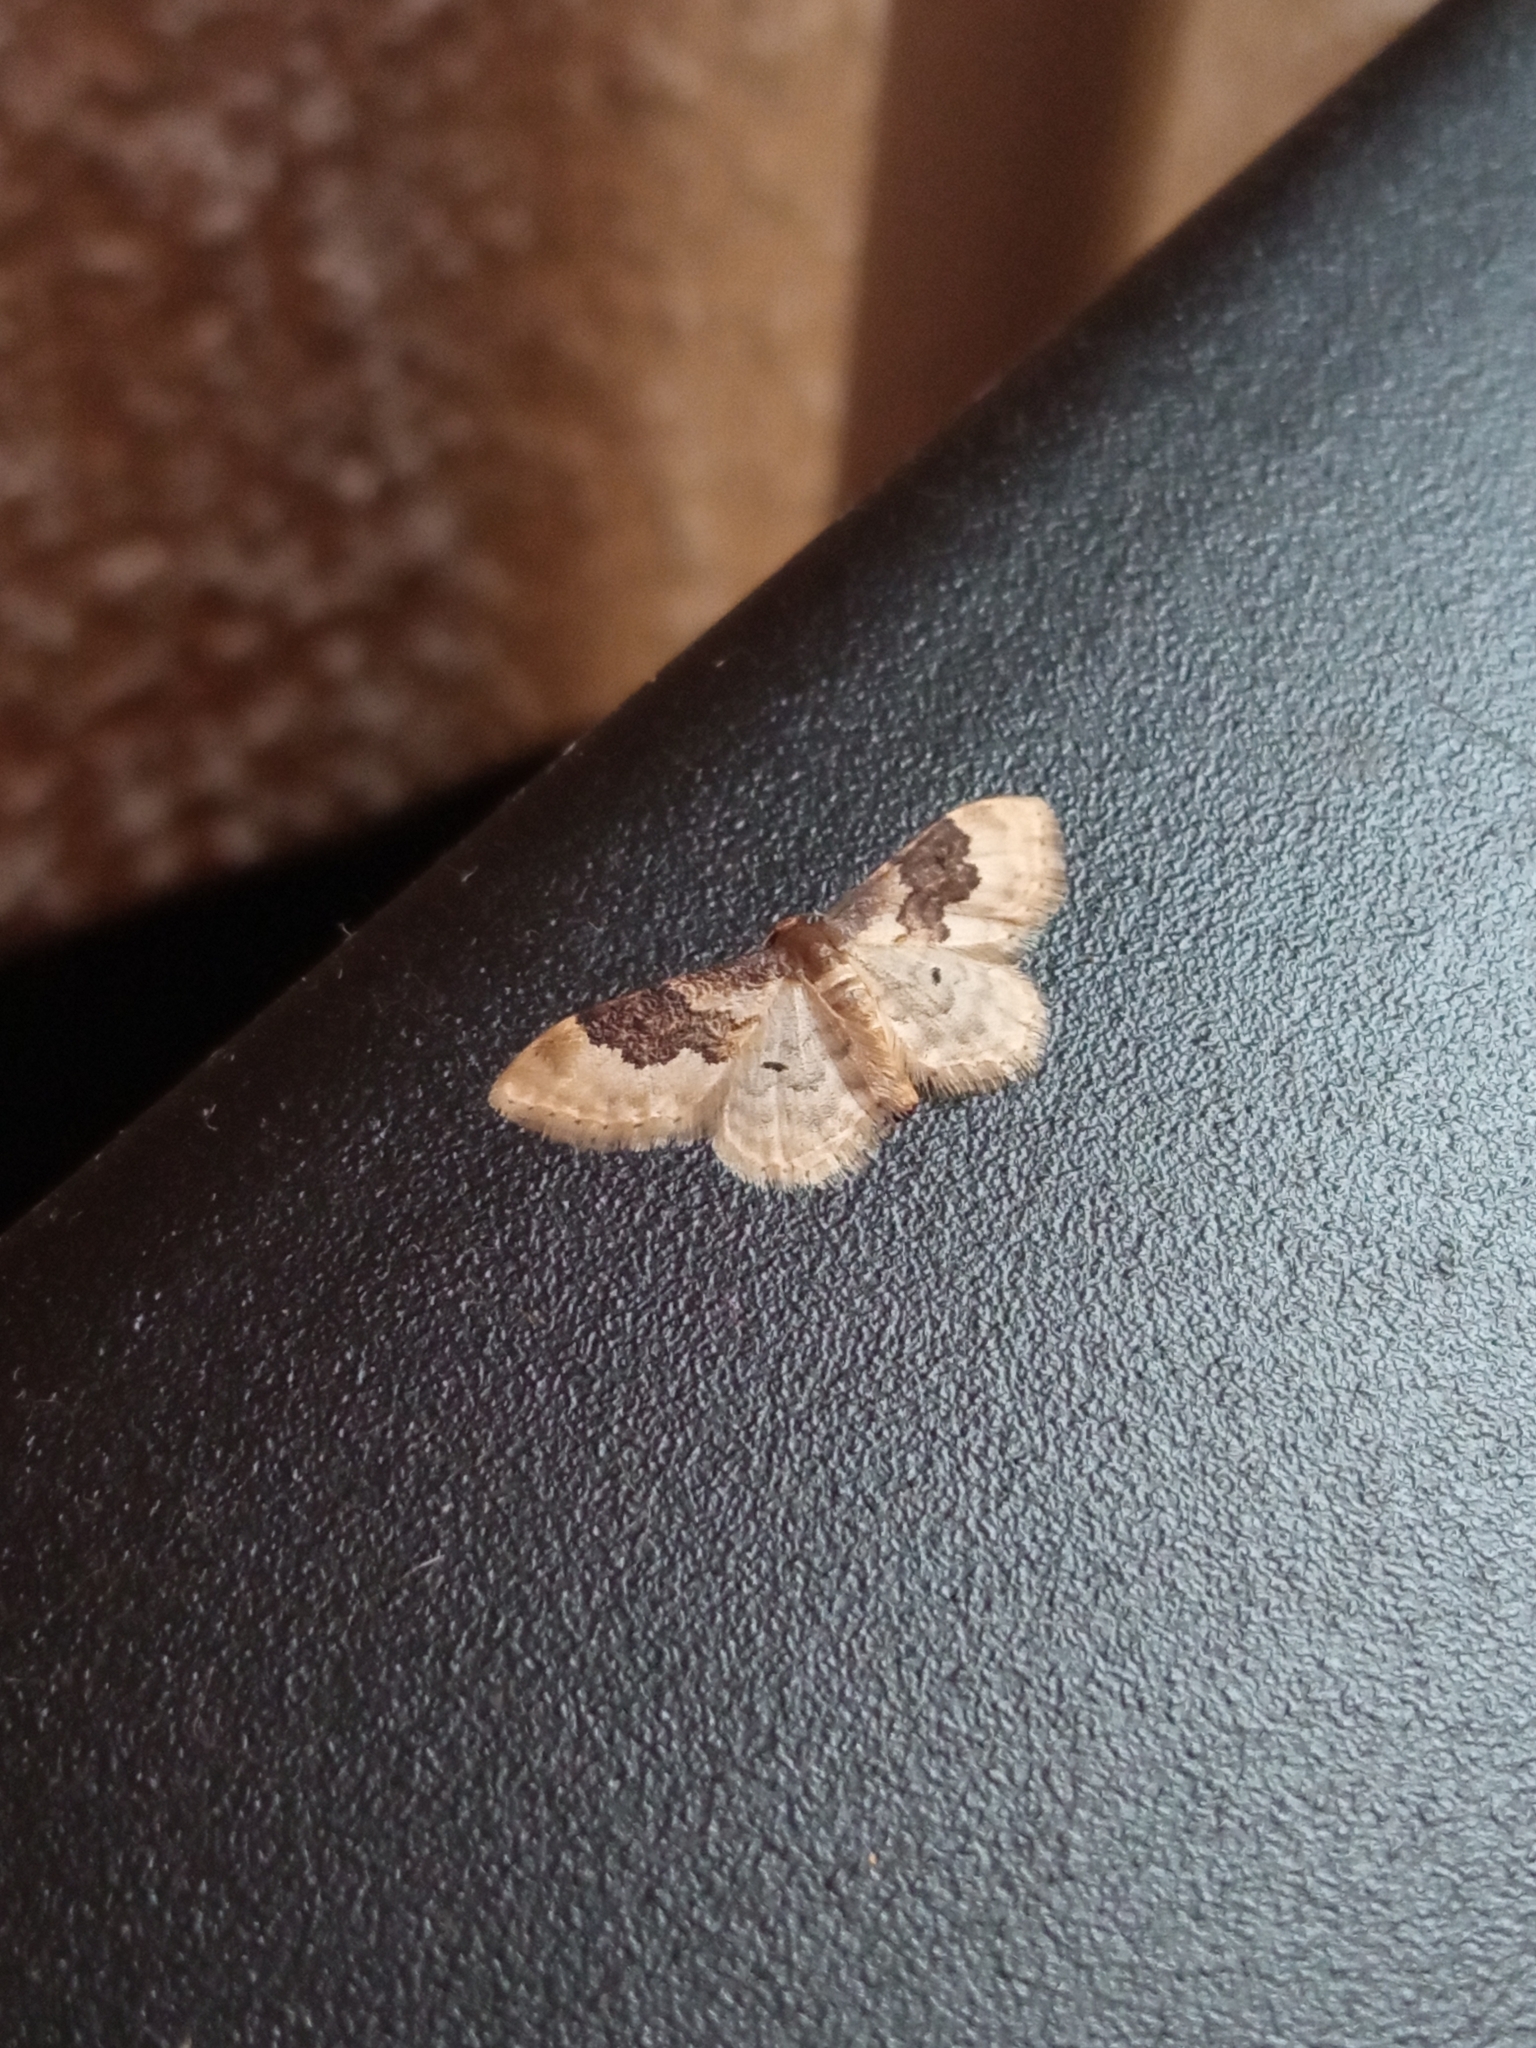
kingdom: Animalia
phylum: Arthropoda
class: Insecta
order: Lepidoptera
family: Geometridae
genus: Idaea
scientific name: Idaea rusticata
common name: Least carpet
